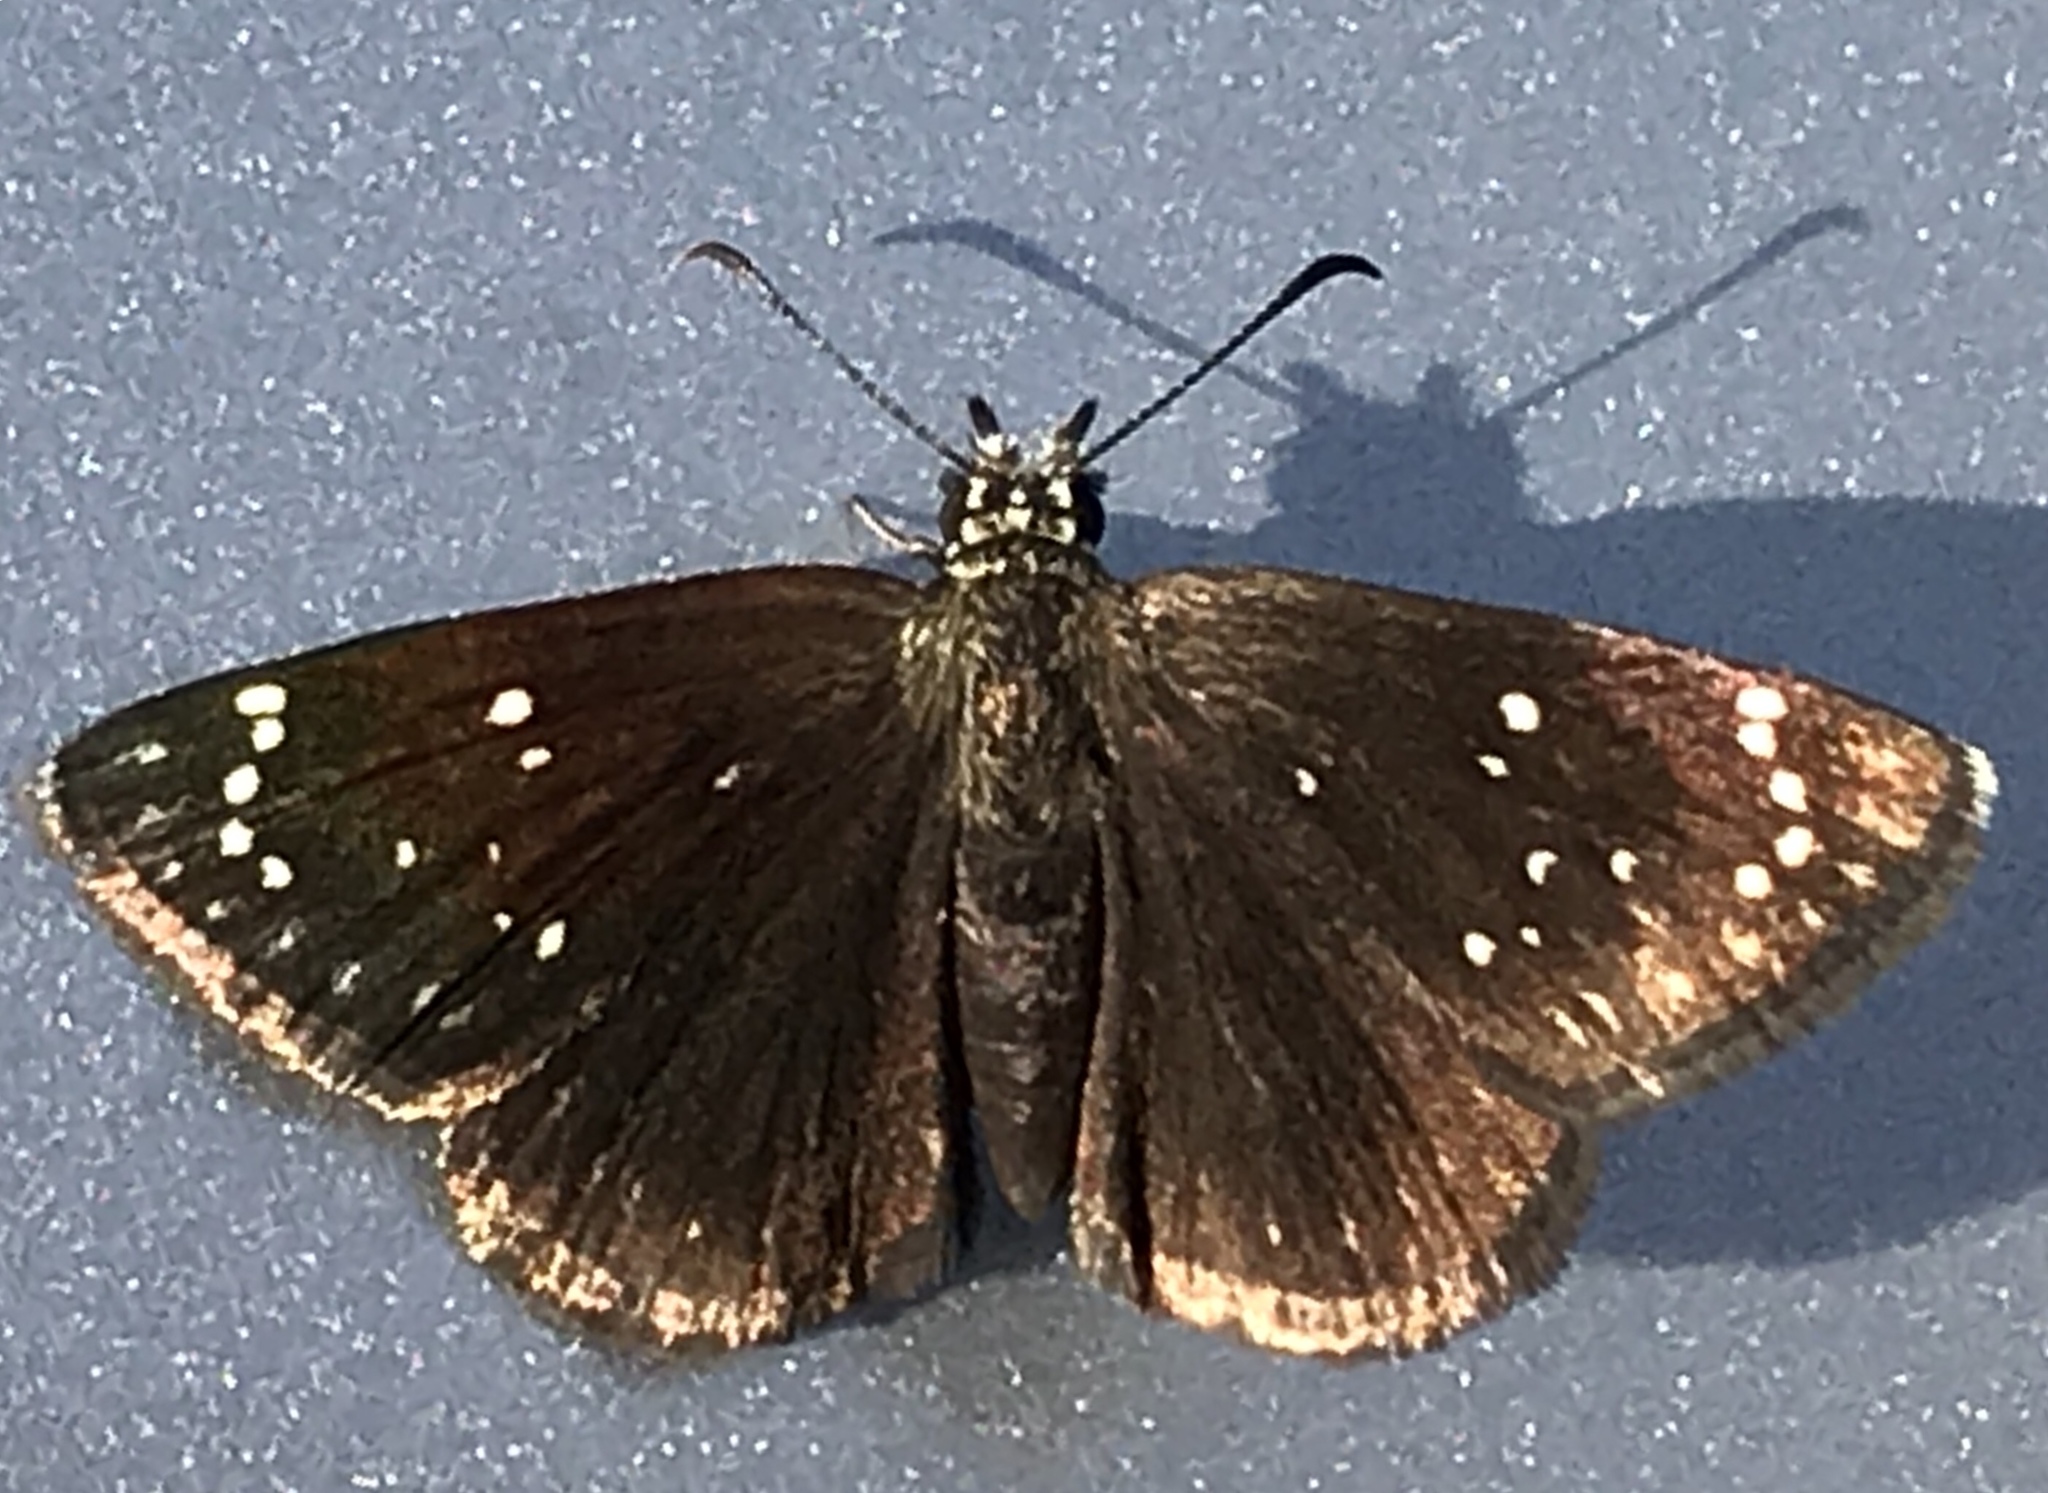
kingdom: Animalia
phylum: Arthropoda
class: Insecta
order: Lepidoptera
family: Hesperiidae
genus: Pholisora
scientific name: Pholisora catullus
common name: Common sootywing
